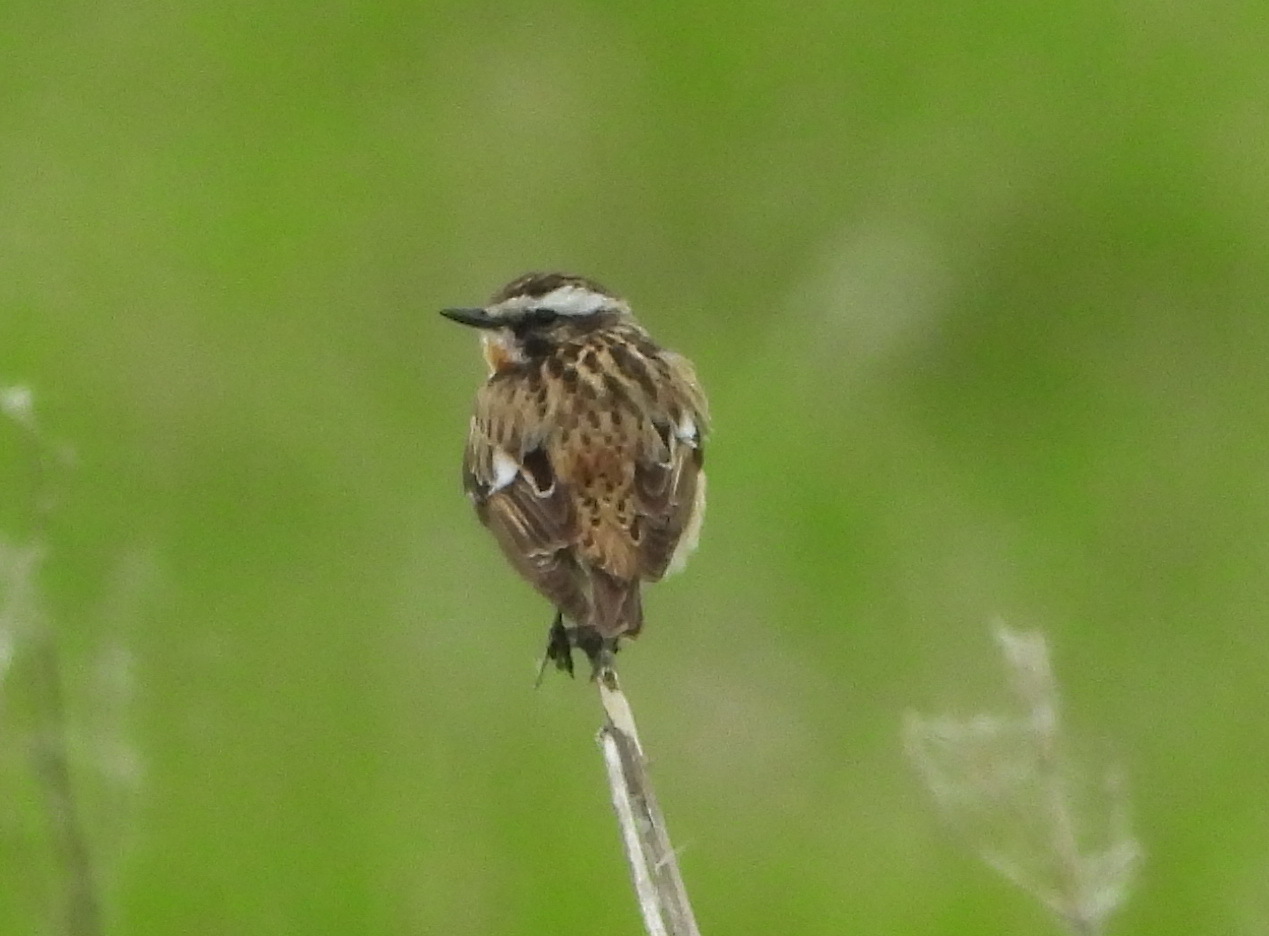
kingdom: Animalia
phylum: Chordata
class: Aves
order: Passeriformes
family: Muscicapidae
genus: Saxicola
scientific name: Saxicola rubetra
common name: Whinchat
